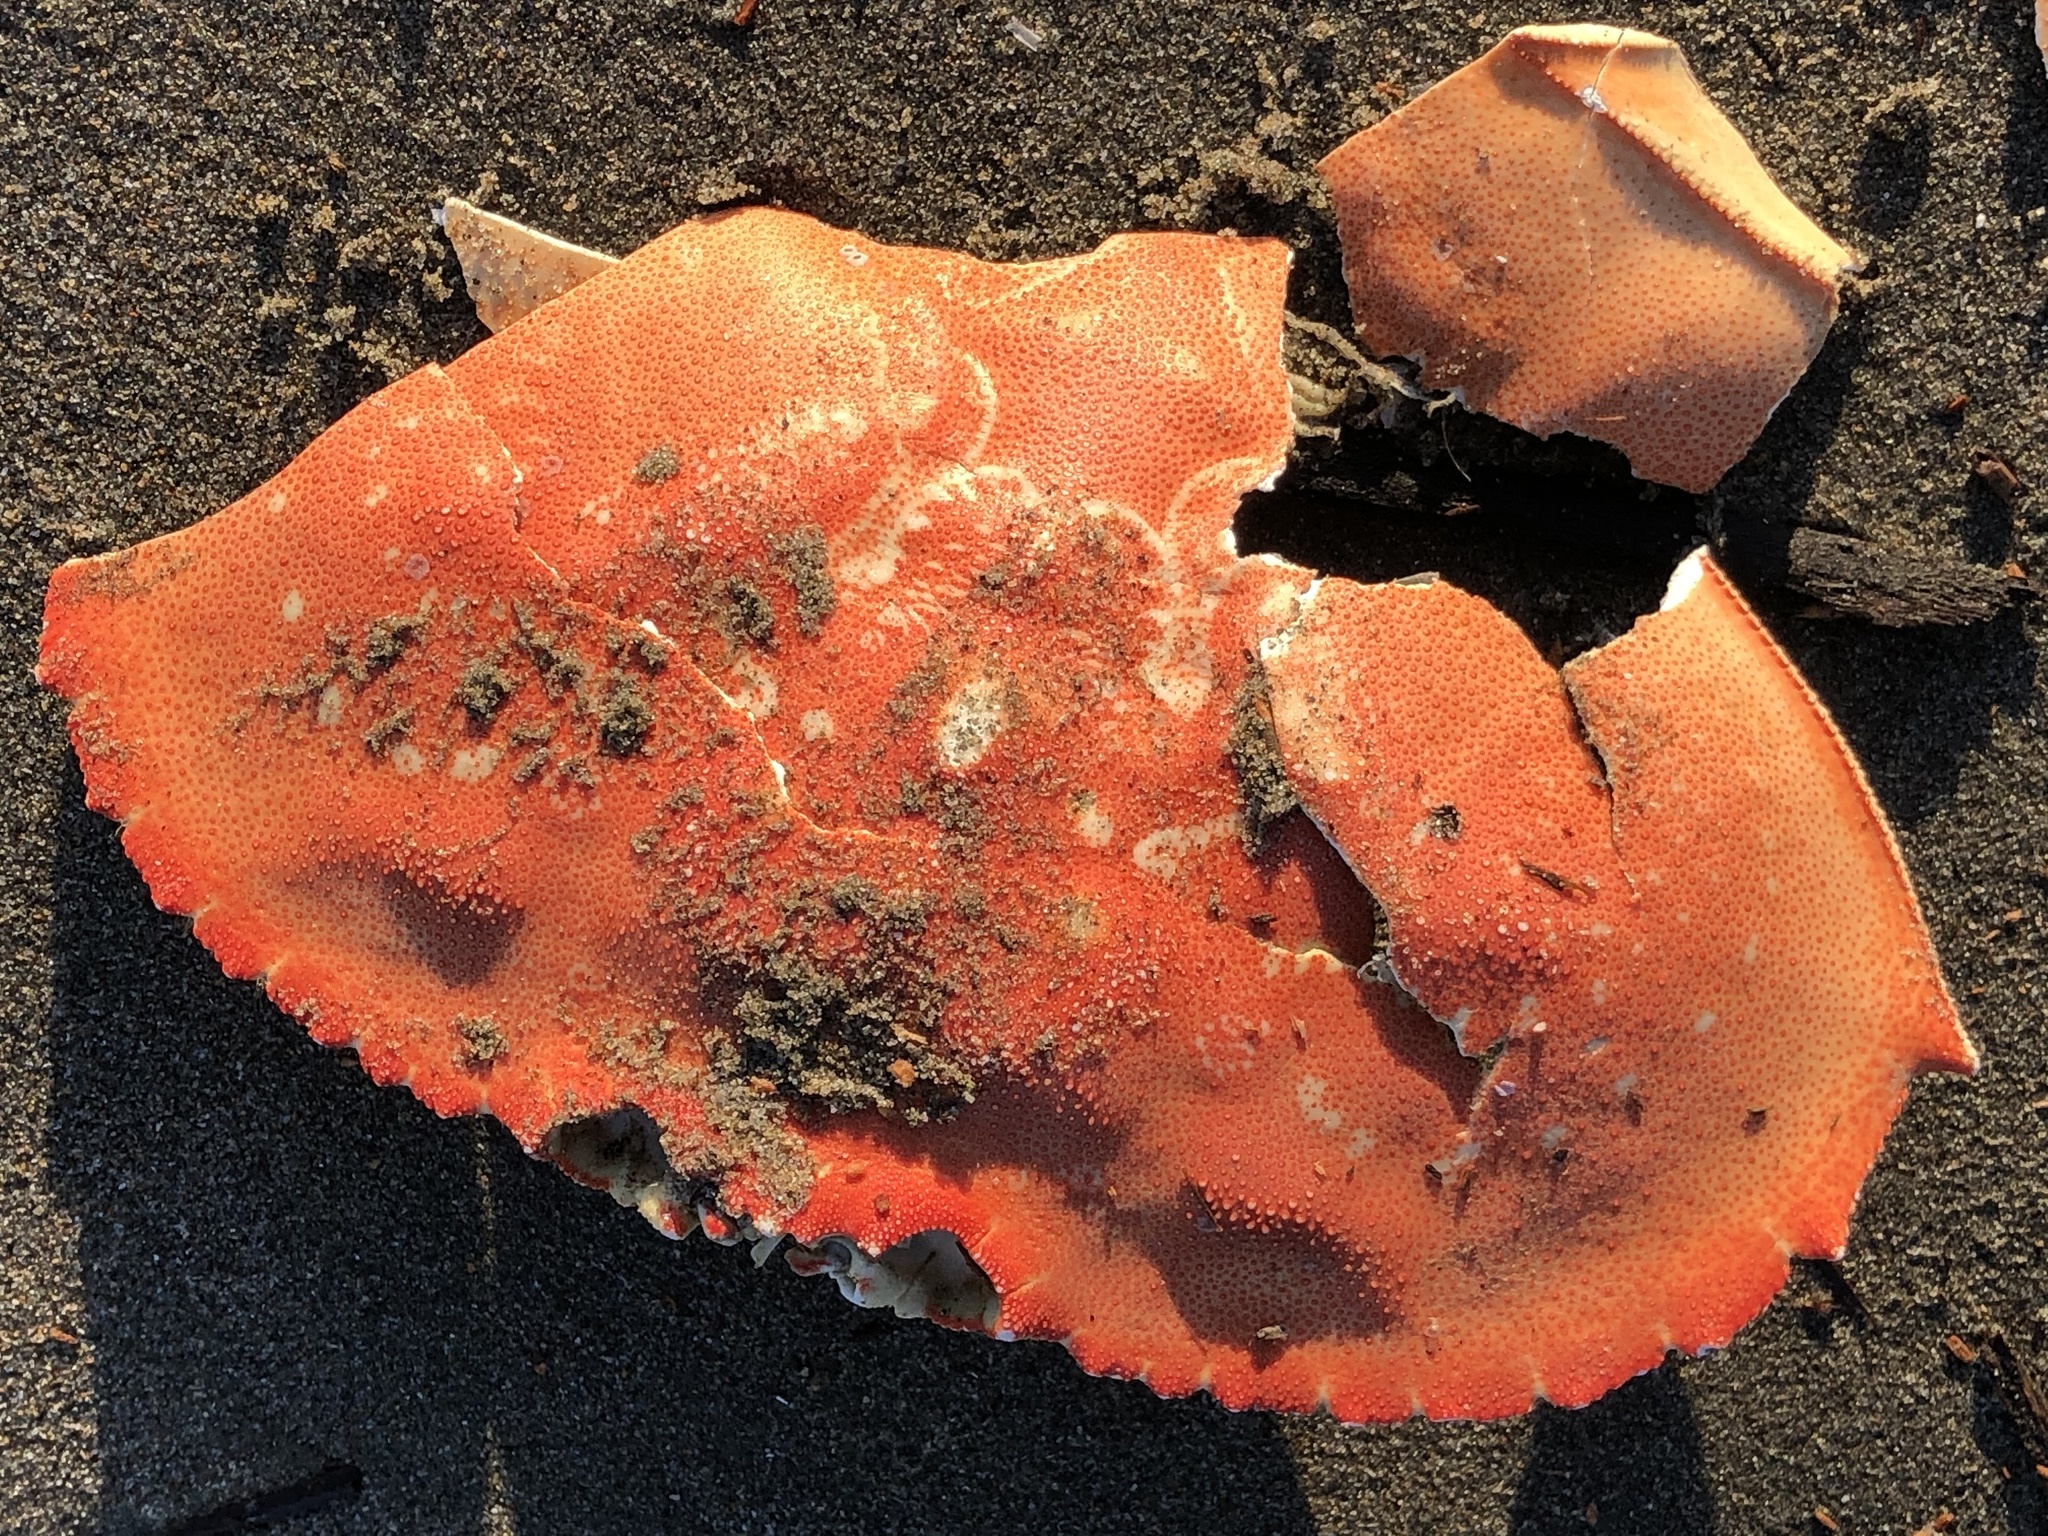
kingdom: Animalia
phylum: Arthropoda
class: Malacostraca
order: Decapoda
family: Cancridae
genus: Metacarcinus
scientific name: Metacarcinus magister
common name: Californian crab
